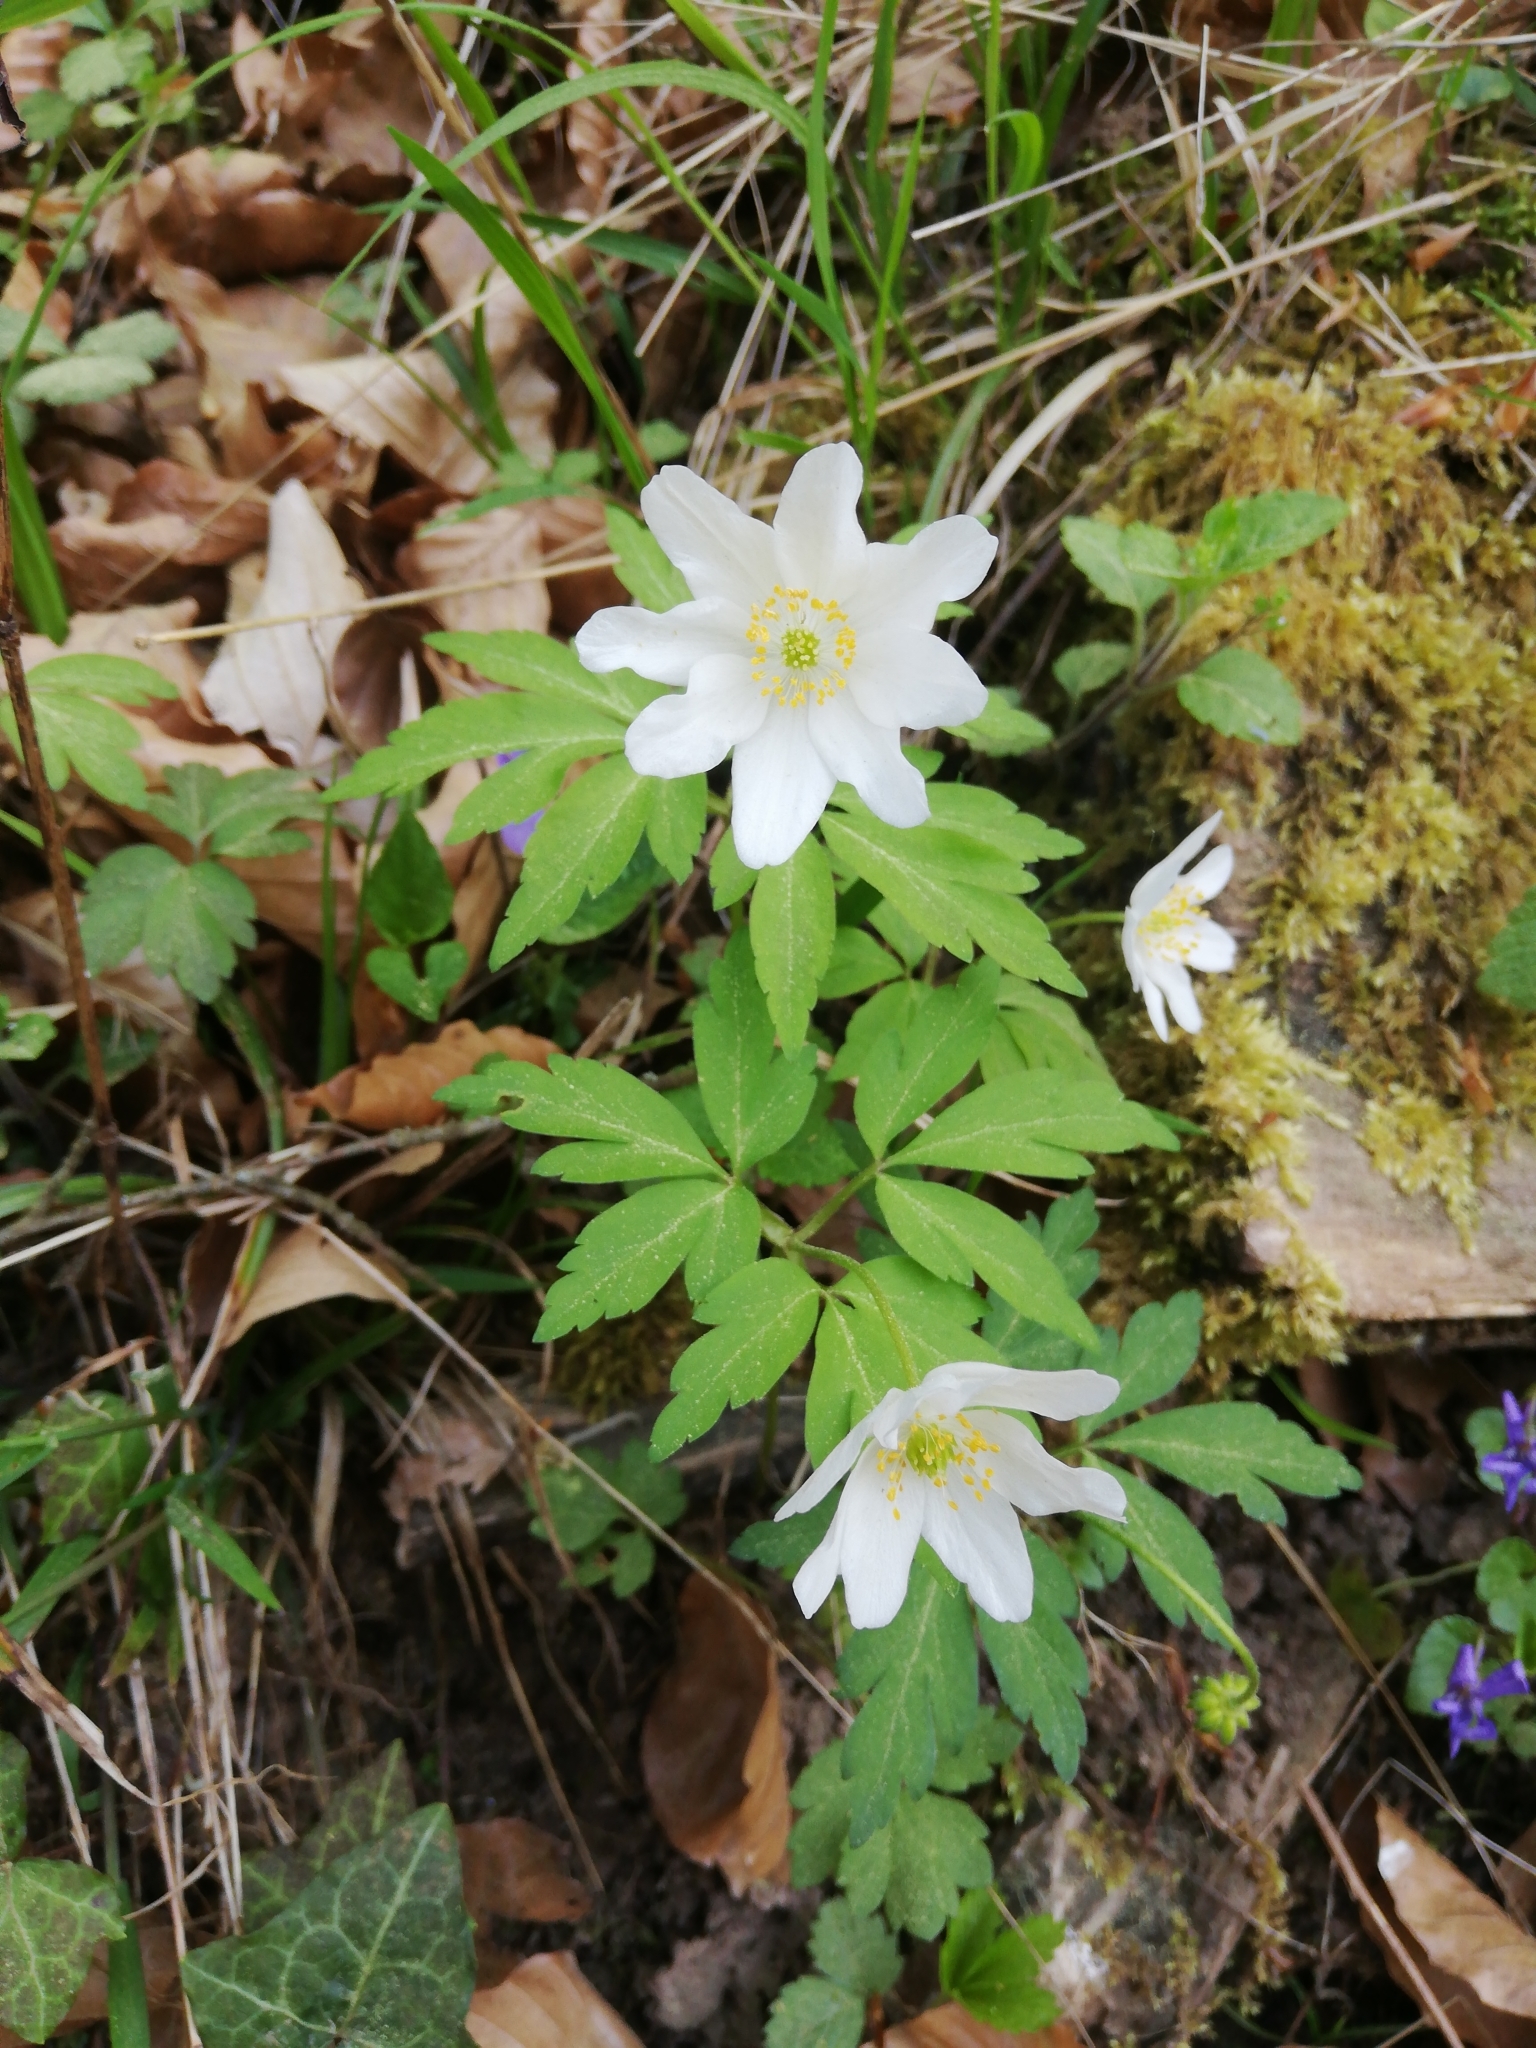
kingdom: Plantae
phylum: Tracheophyta
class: Magnoliopsida
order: Ranunculales
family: Ranunculaceae
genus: Anemone
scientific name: Anemone nemorosa
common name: Wood anemone
